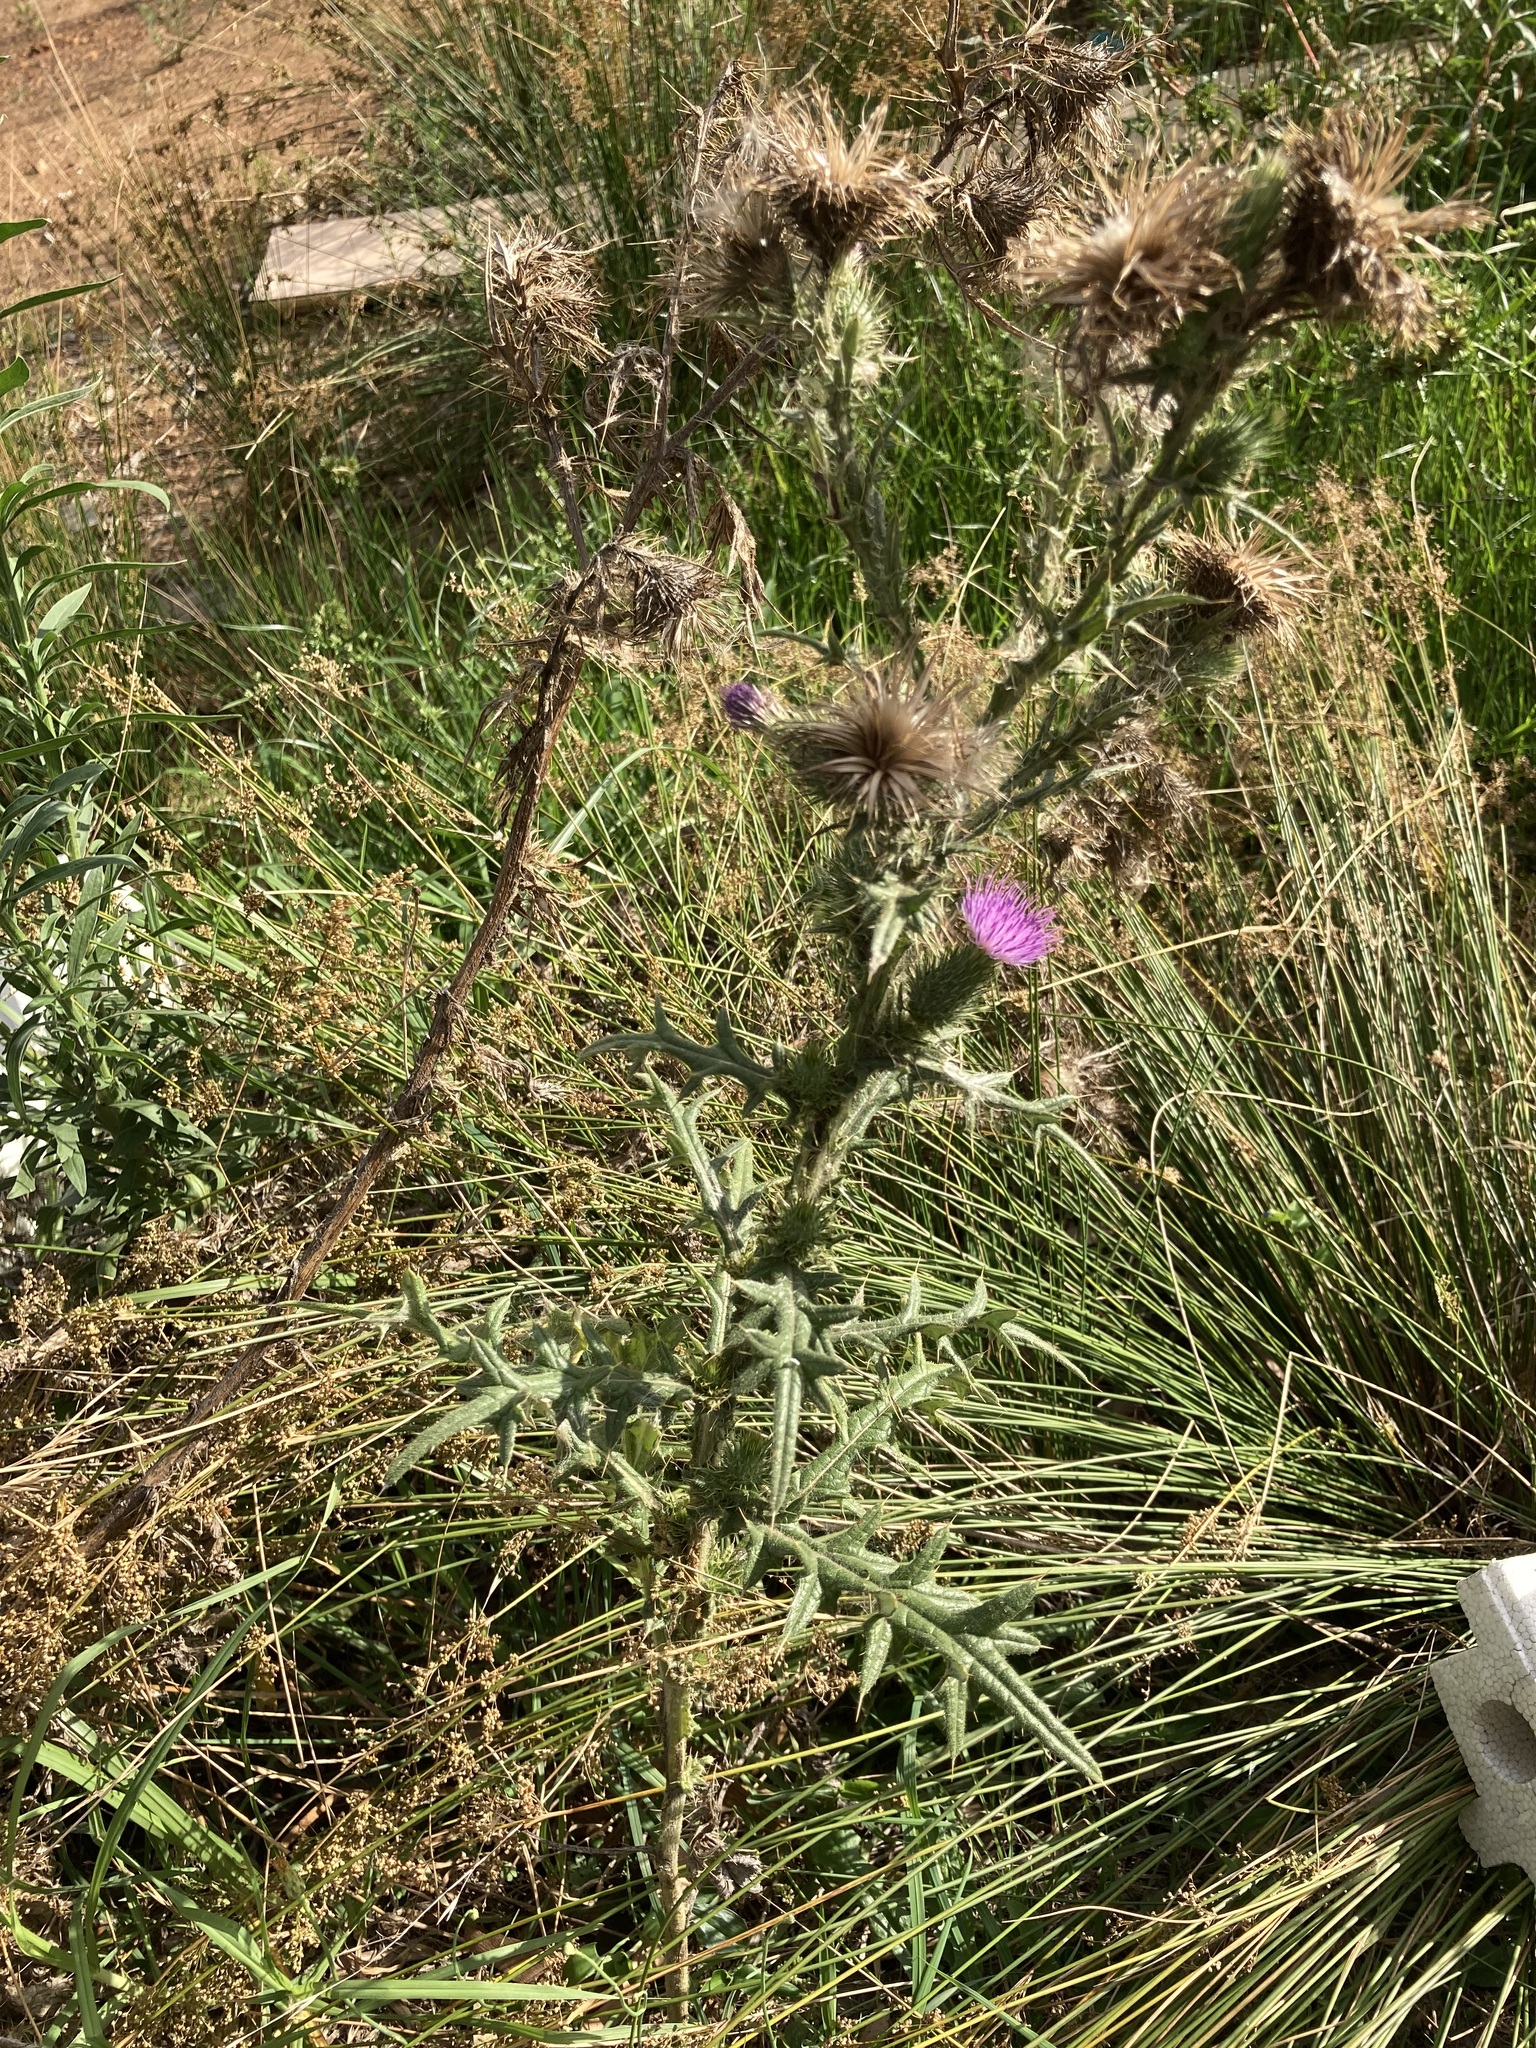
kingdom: Plantae
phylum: Tracheophyta
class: Magnoliopsida
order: Asterales
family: Asteraceae
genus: Cirsium
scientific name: Cirsium vulgare
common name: Bull thistle
